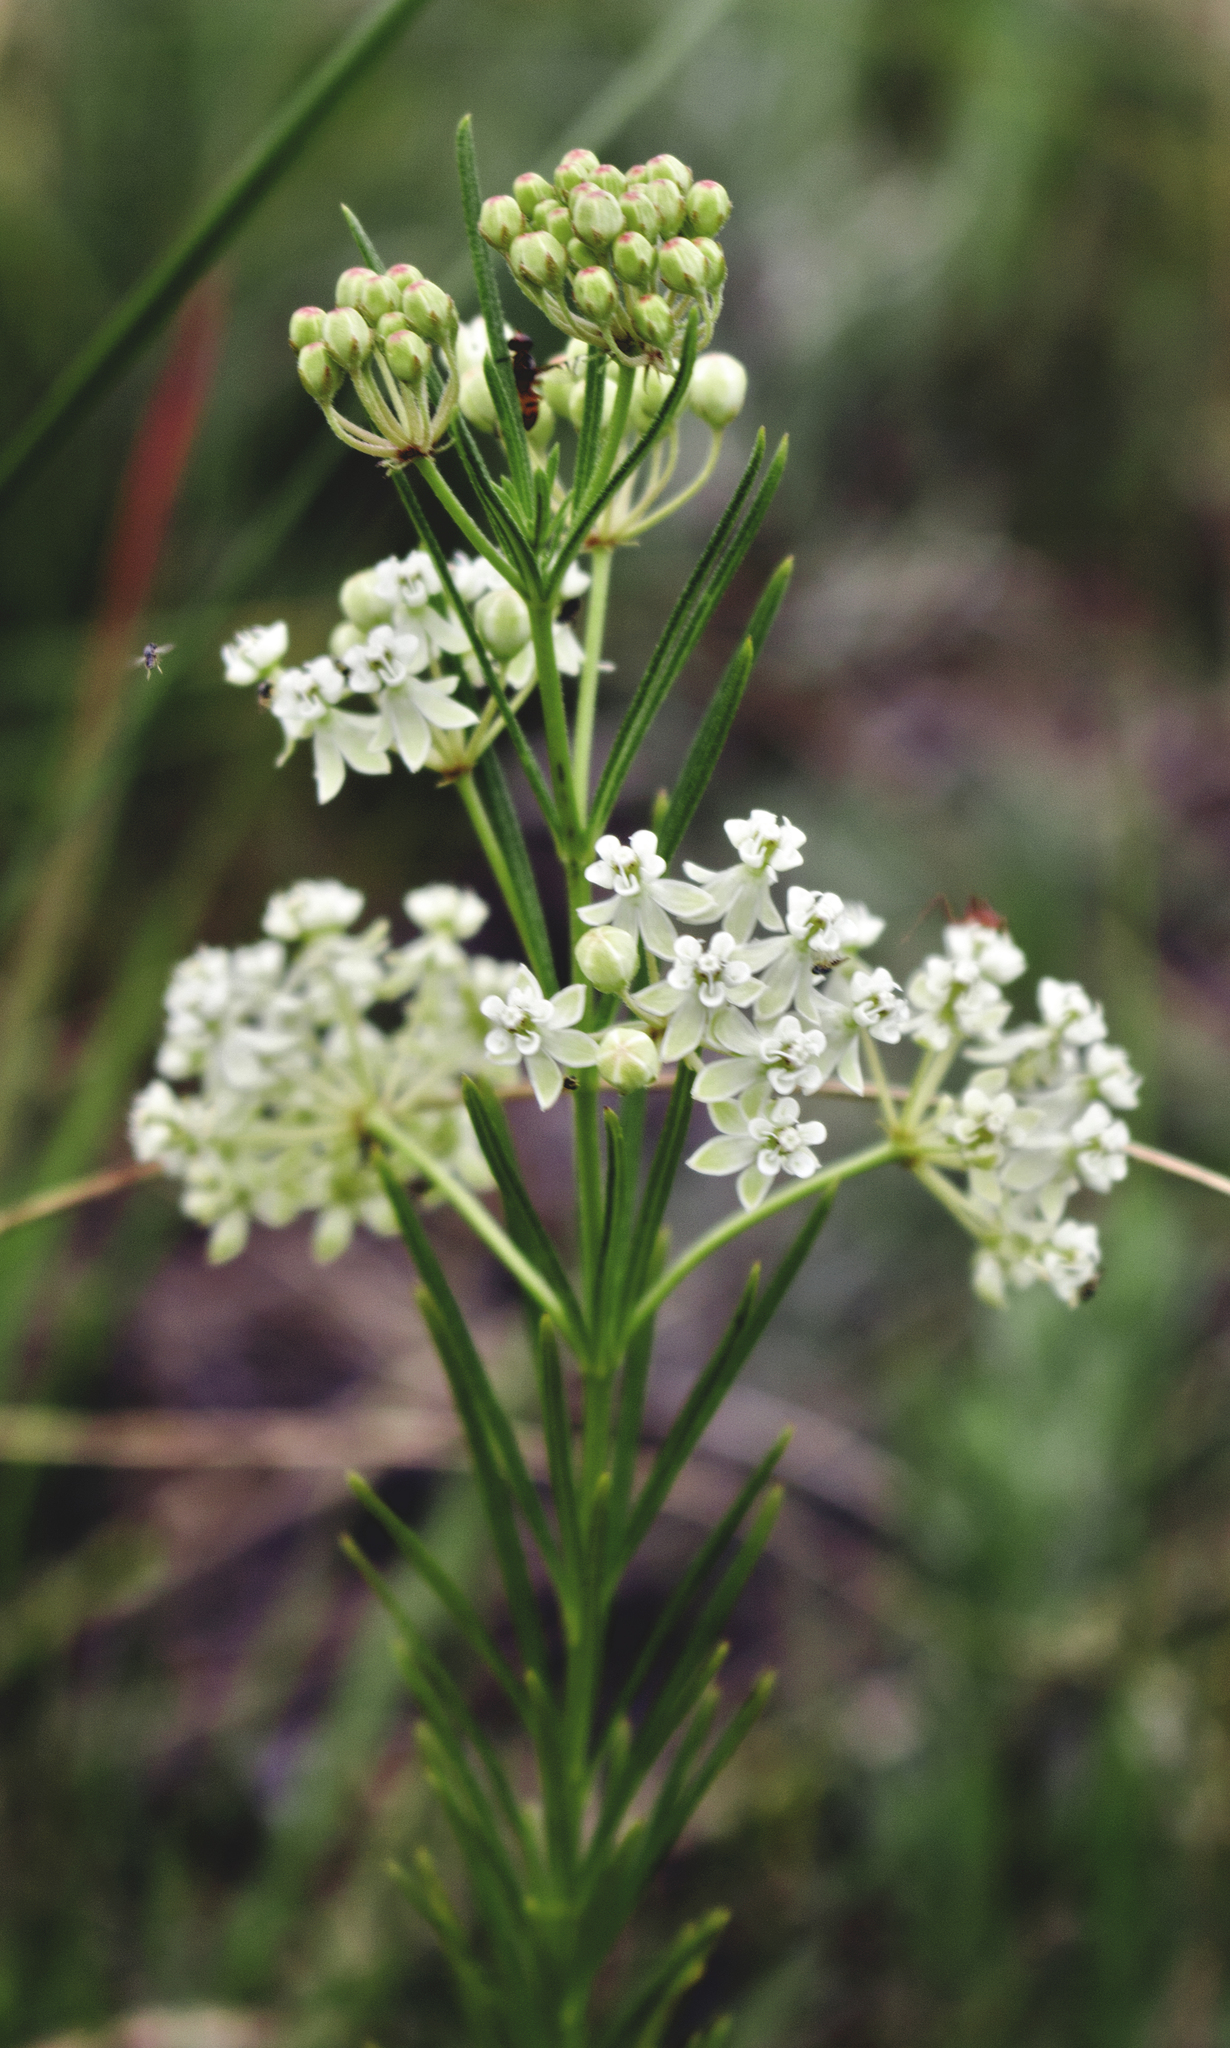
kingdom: Plantae
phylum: Tracheophyta
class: Magnoliopsida
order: Gentianales
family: Apocynaceae
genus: Asclepias
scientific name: Asclepias verticillata
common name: Eastern whorled milkweed
